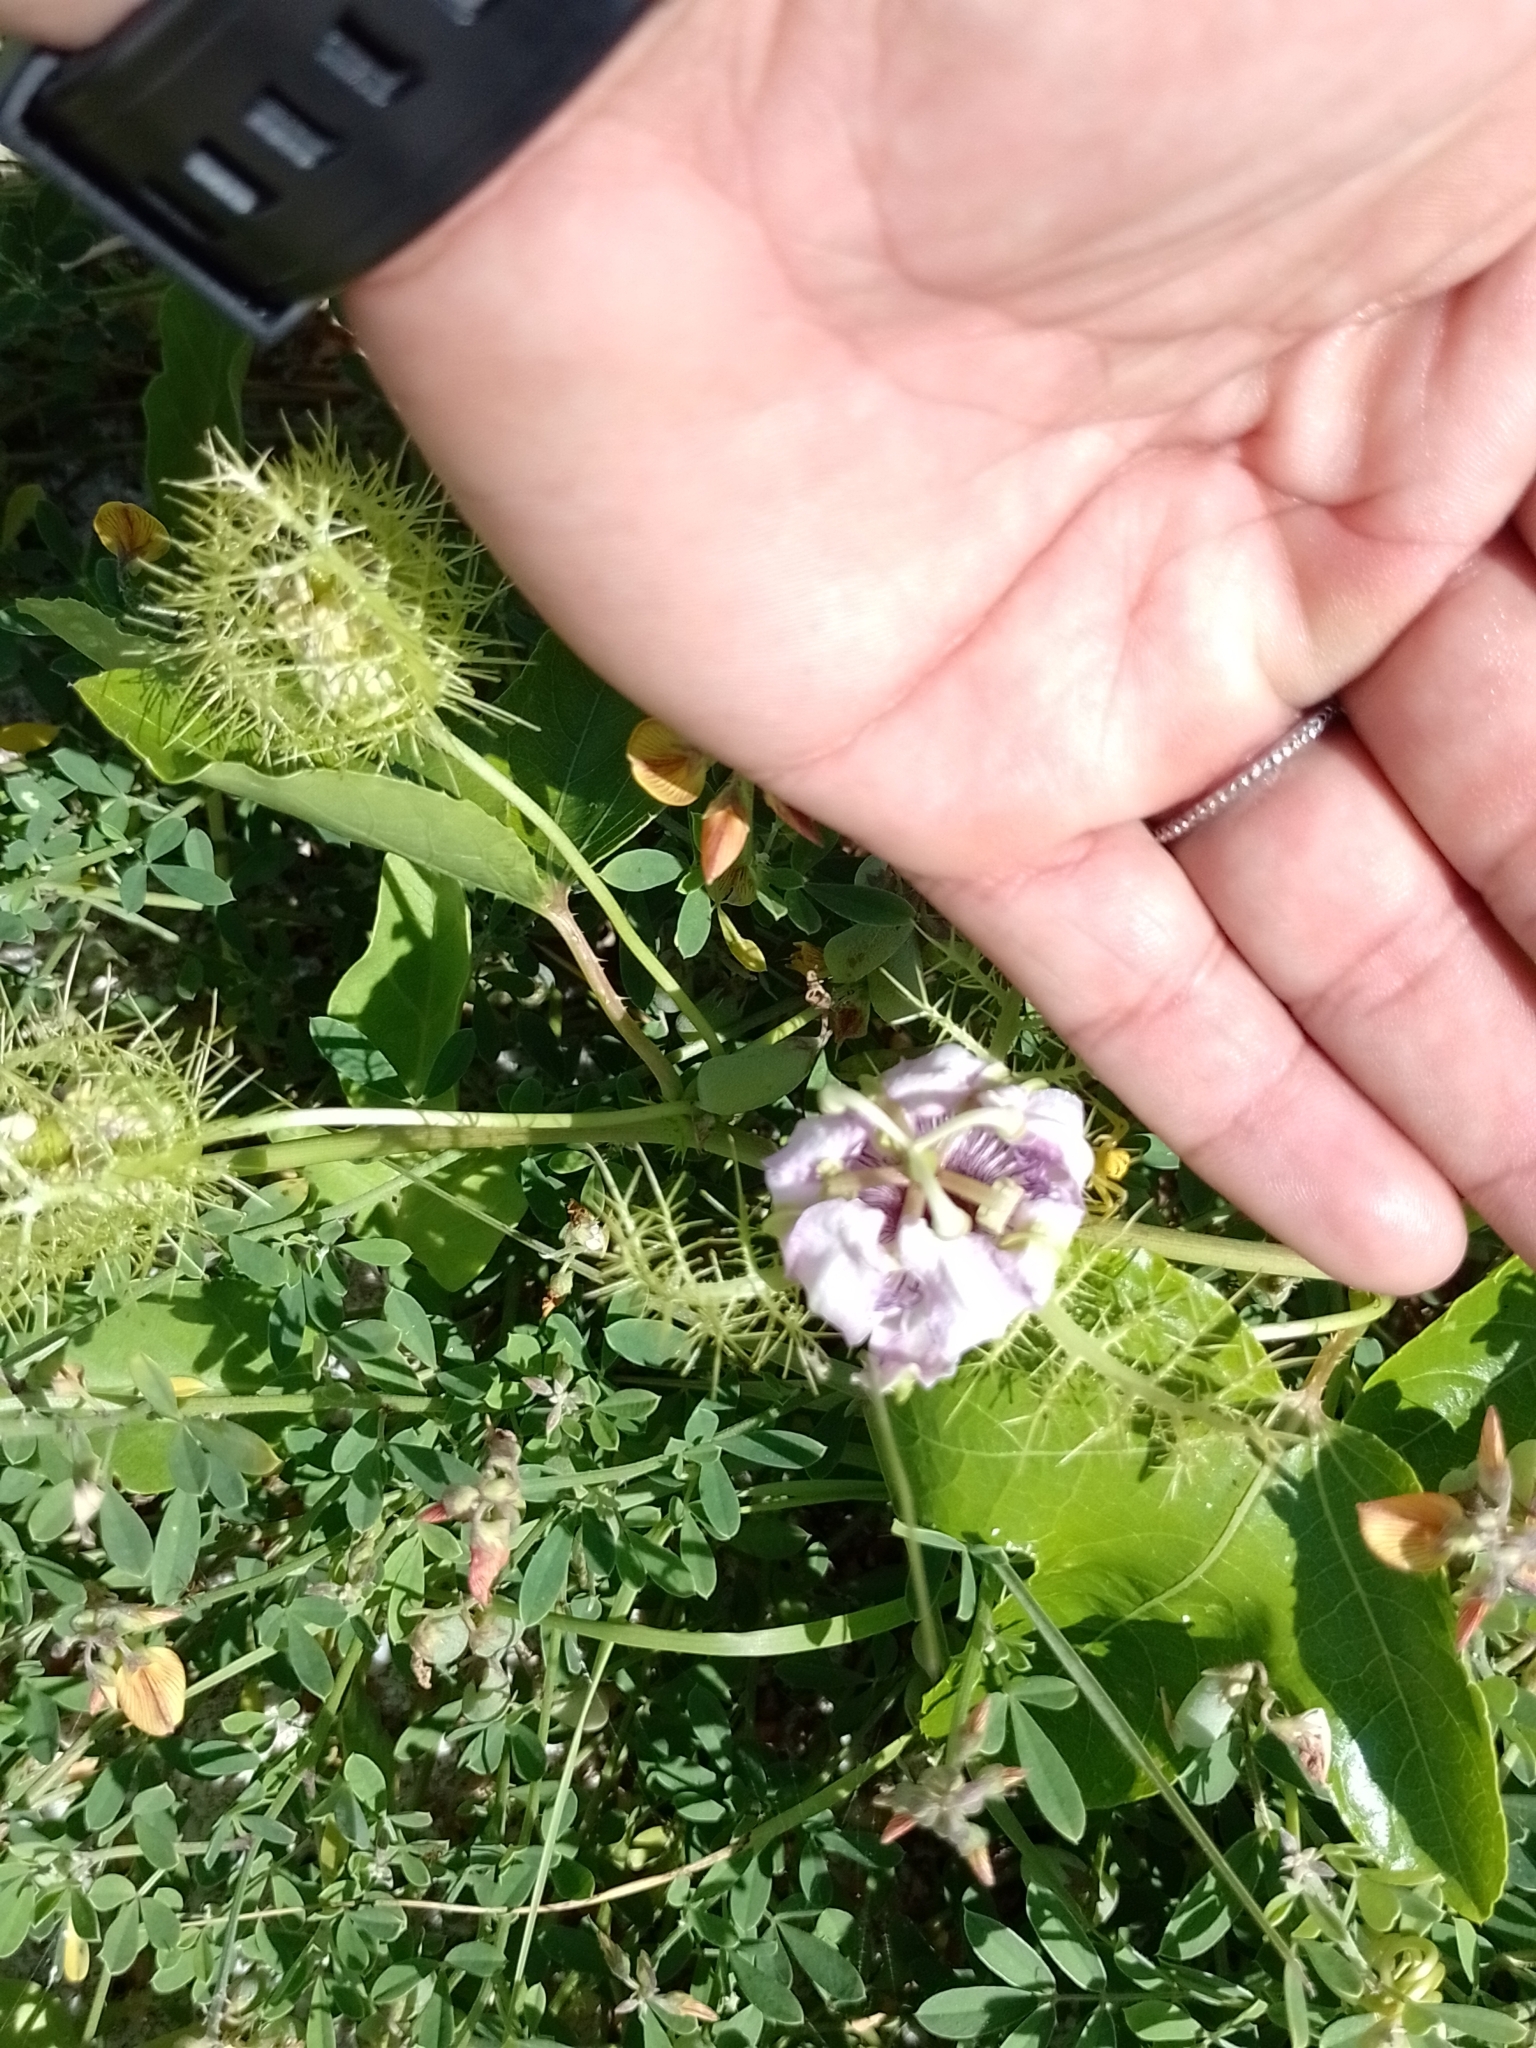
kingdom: Plantae
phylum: Tracheophyta
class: Magnoliopsida
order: Malpighiales
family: Passifloraceae
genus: Passiflora
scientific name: Passiflora ciliata
